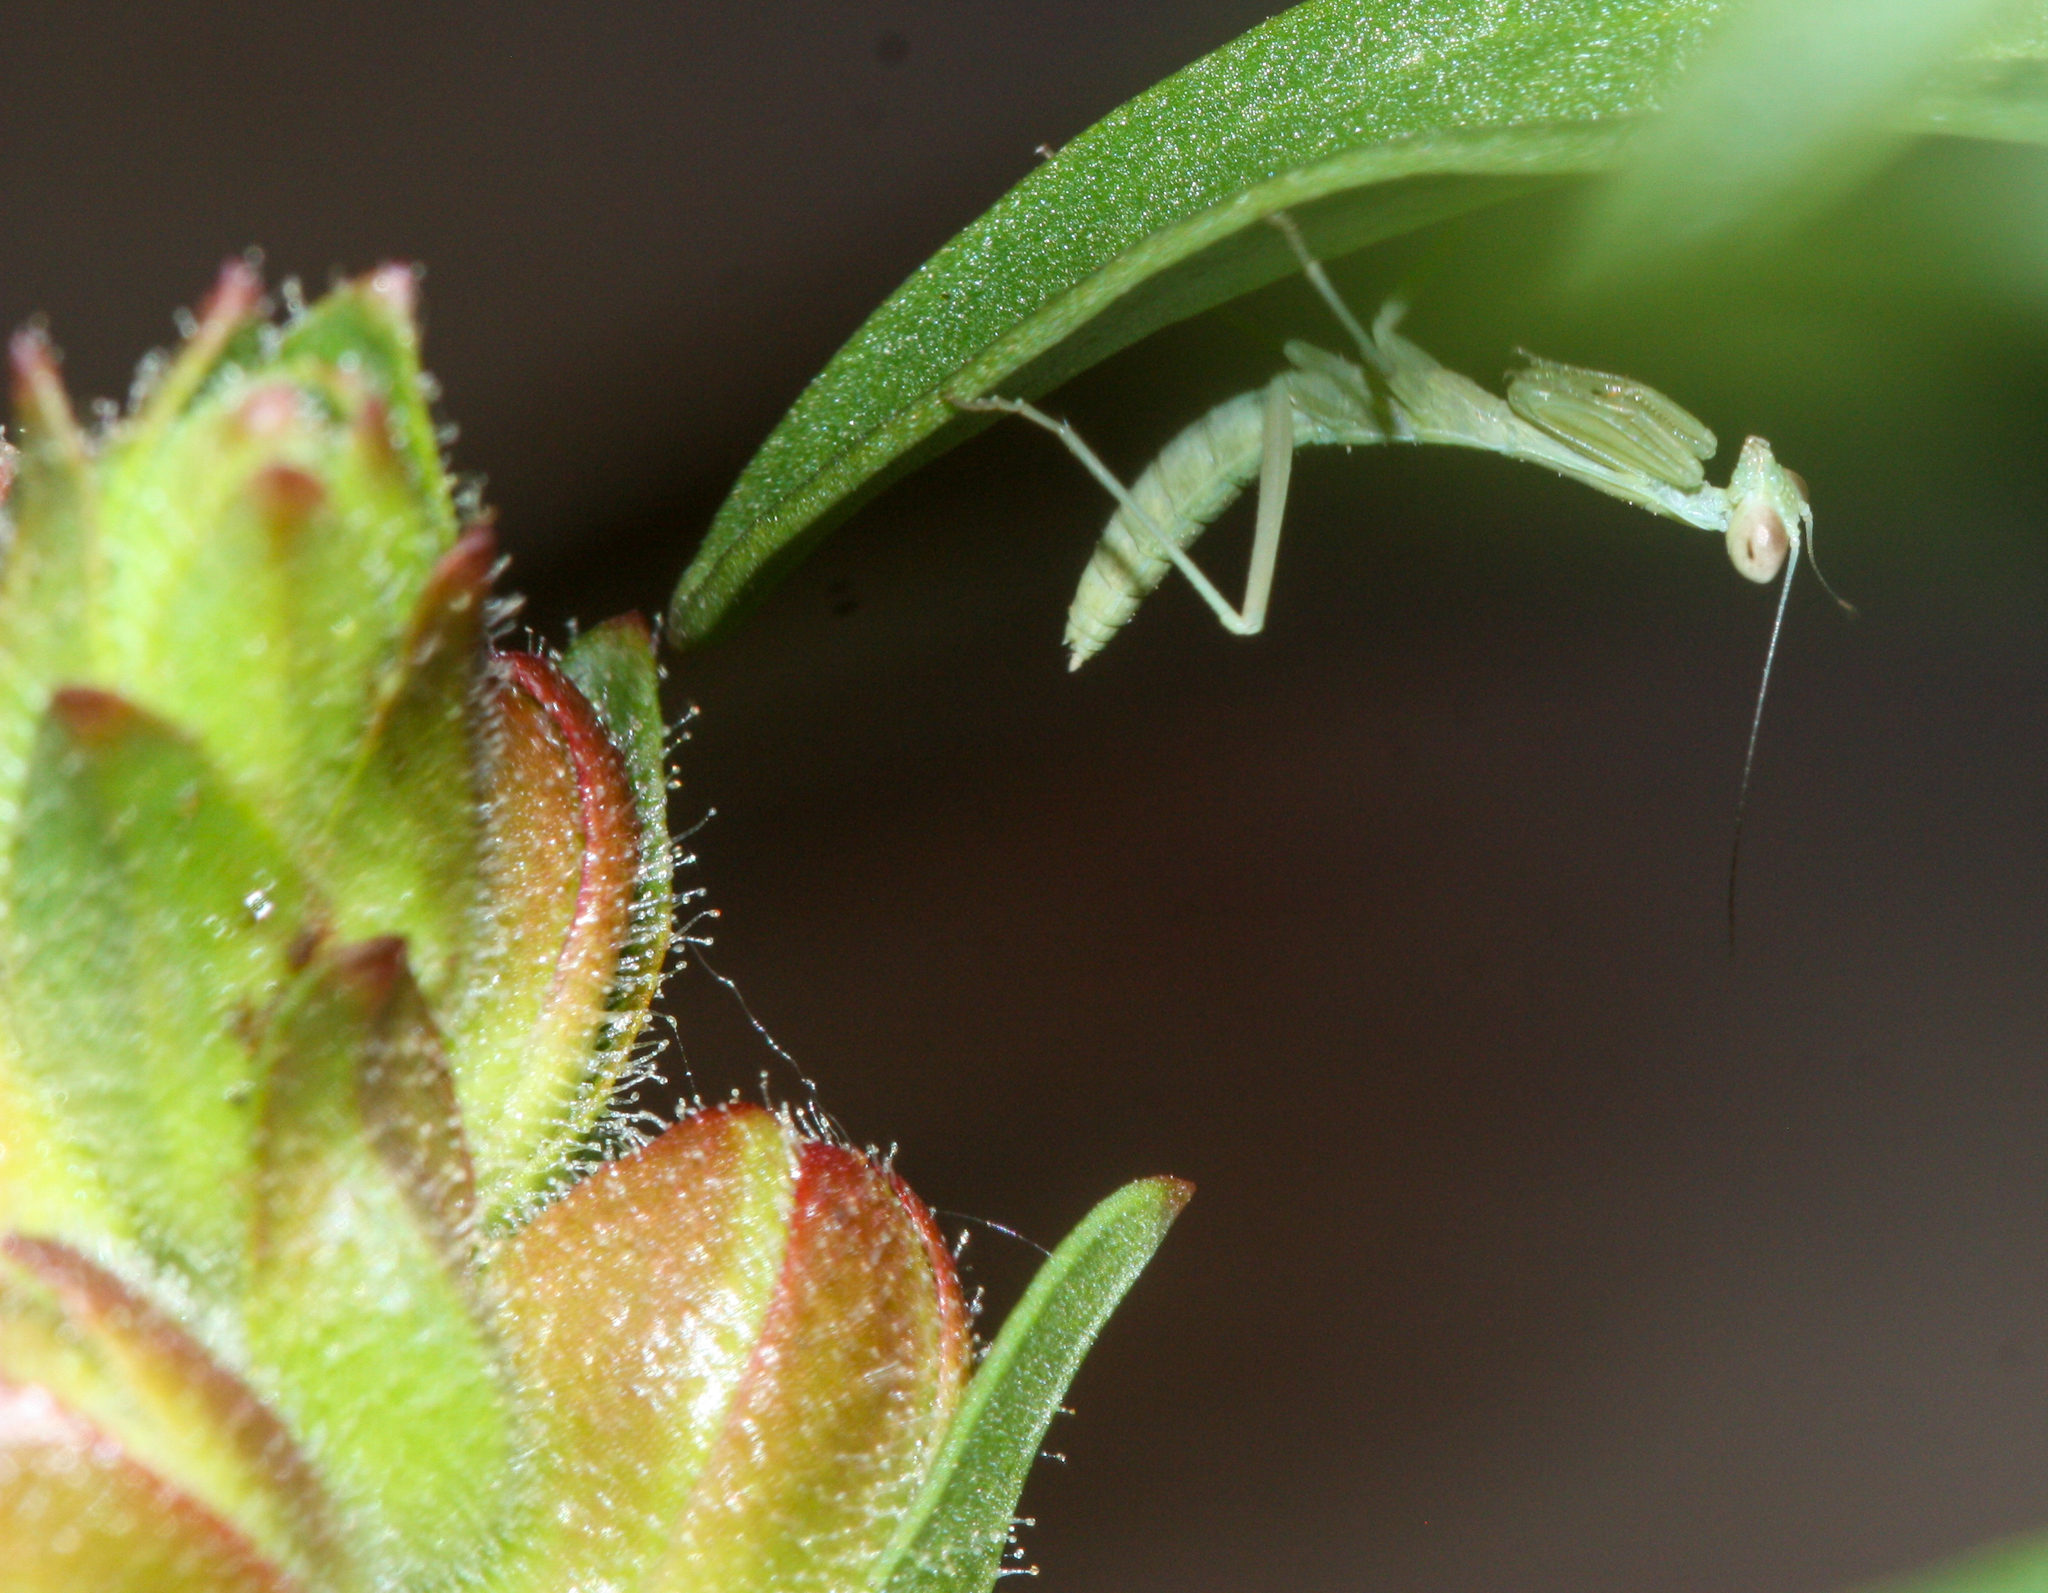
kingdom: Animalia
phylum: Arthropoda
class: Insecta
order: Mantodea
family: Eremiaphilidae
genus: Iris
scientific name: Iris oratoria
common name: Mediterranean mantis
